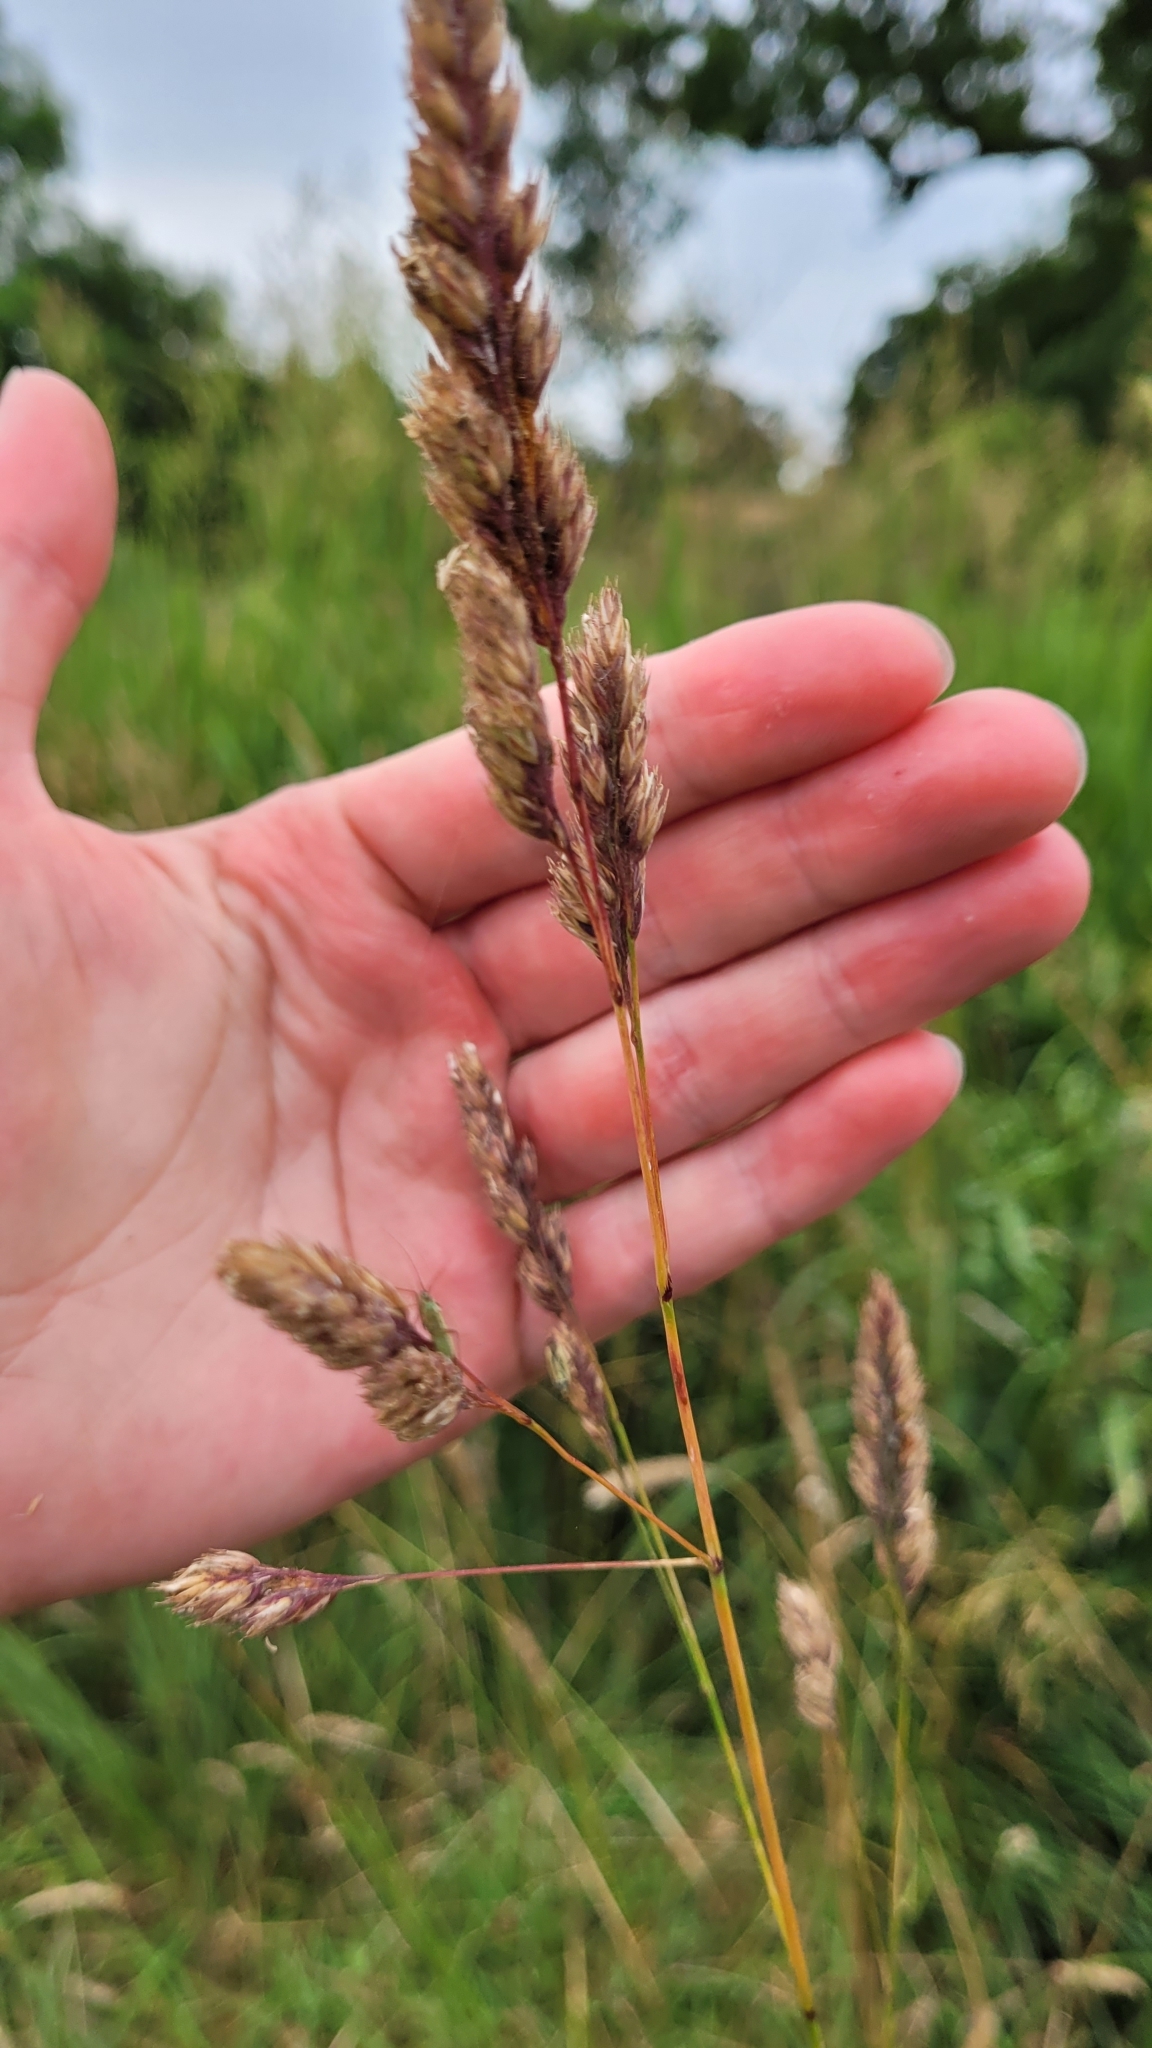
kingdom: Plantae
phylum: Tracheophyta
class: Liliopsida
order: Poales
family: Poaceae
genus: Dactylis
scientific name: Dactylis glomerata
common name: Orchardgrass
